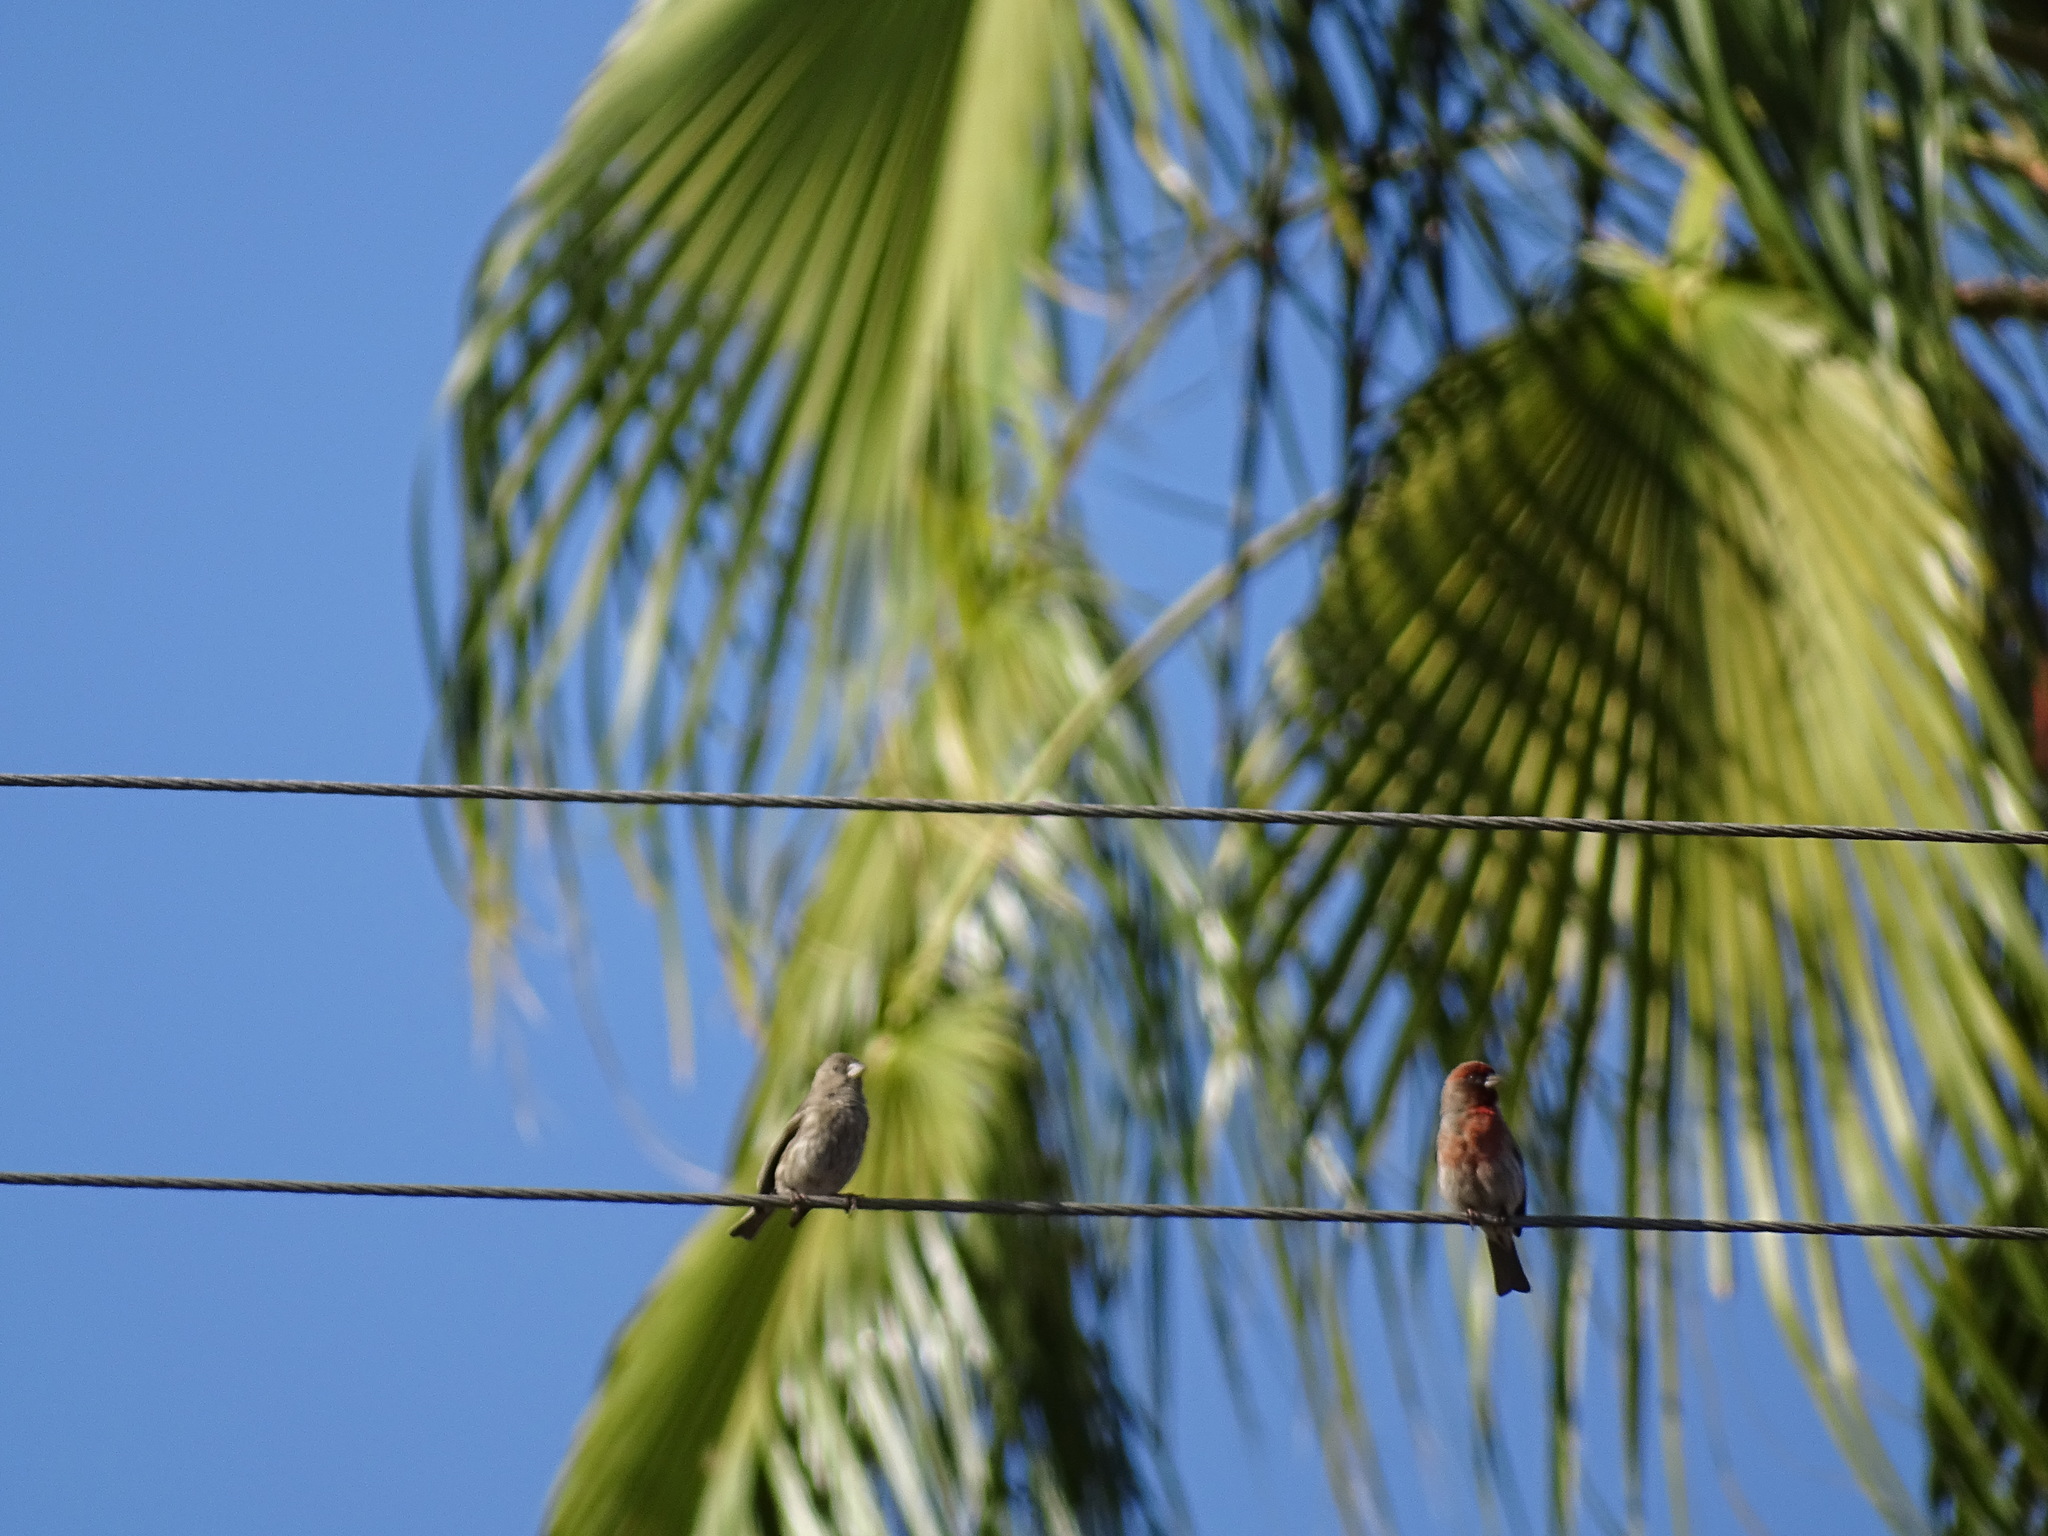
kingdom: Animalia
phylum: Chordata
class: Aves
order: Passeriformes
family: Fringillidae
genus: Haemorhous
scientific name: Haemorhous mexicanus
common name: House finch
